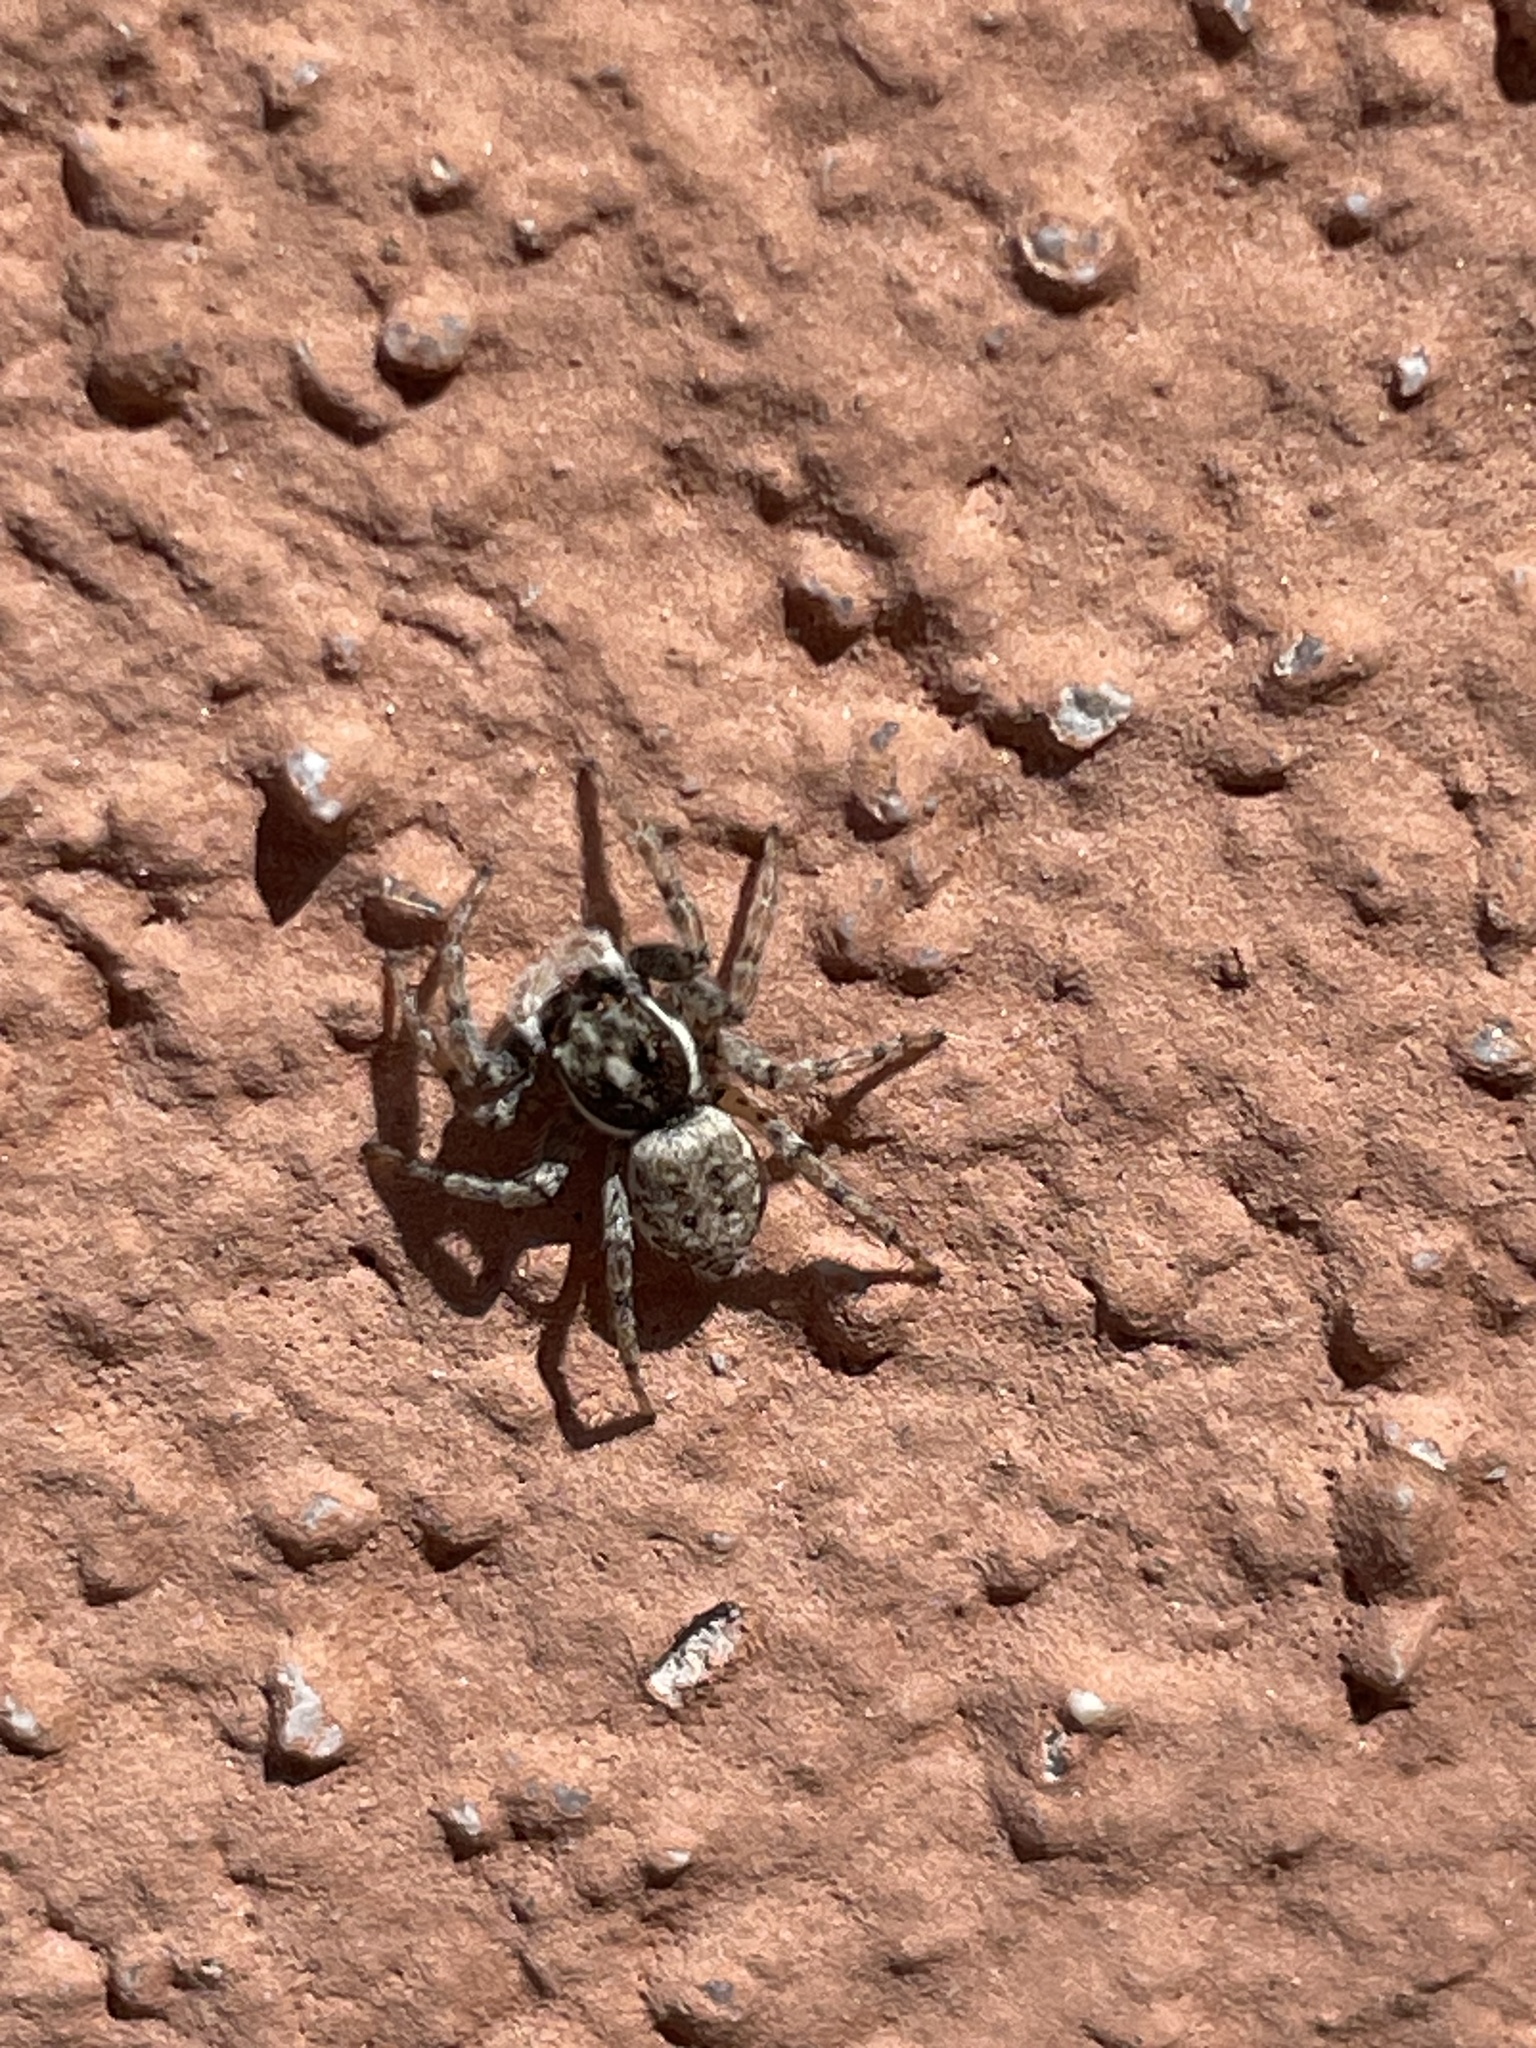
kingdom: Animalia
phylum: Arthropoda
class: Arachnida
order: Araneae
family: Salticidae
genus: Menemerus
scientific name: Menemerus semilimbatus
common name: Jumping spider
